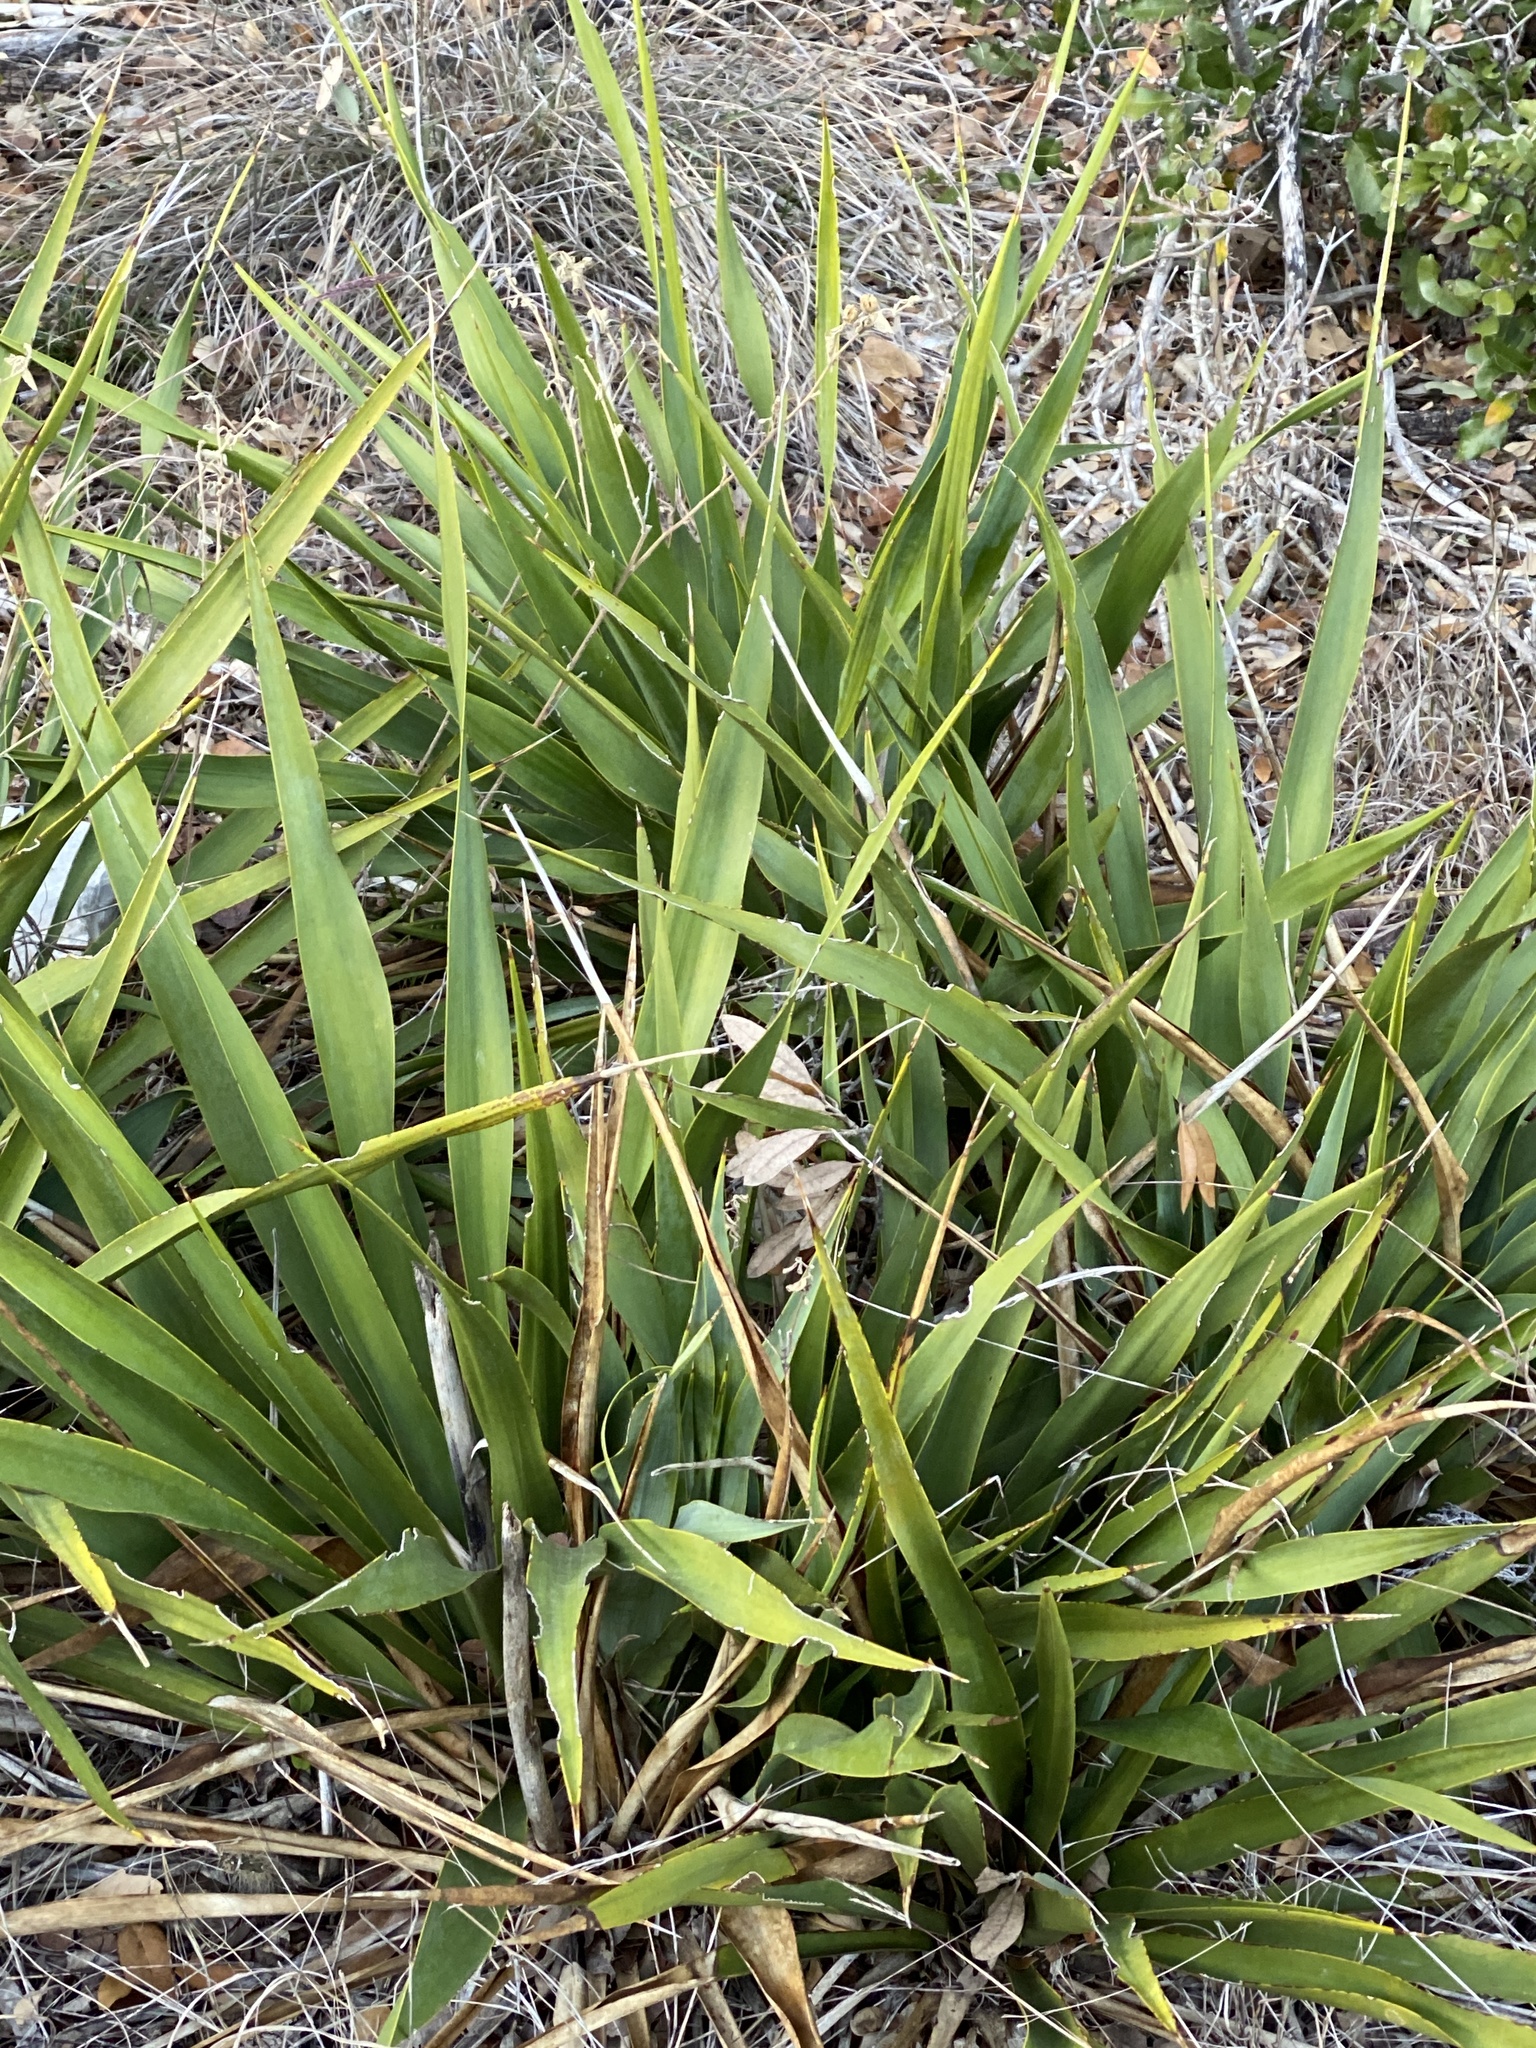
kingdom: Plantae
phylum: Tracheophyta
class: Liliopsida
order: Asparagales
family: Asparagaceae
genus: Yucca
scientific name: Yucca rupicola
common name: Twisted-leaf spanish-dagger
